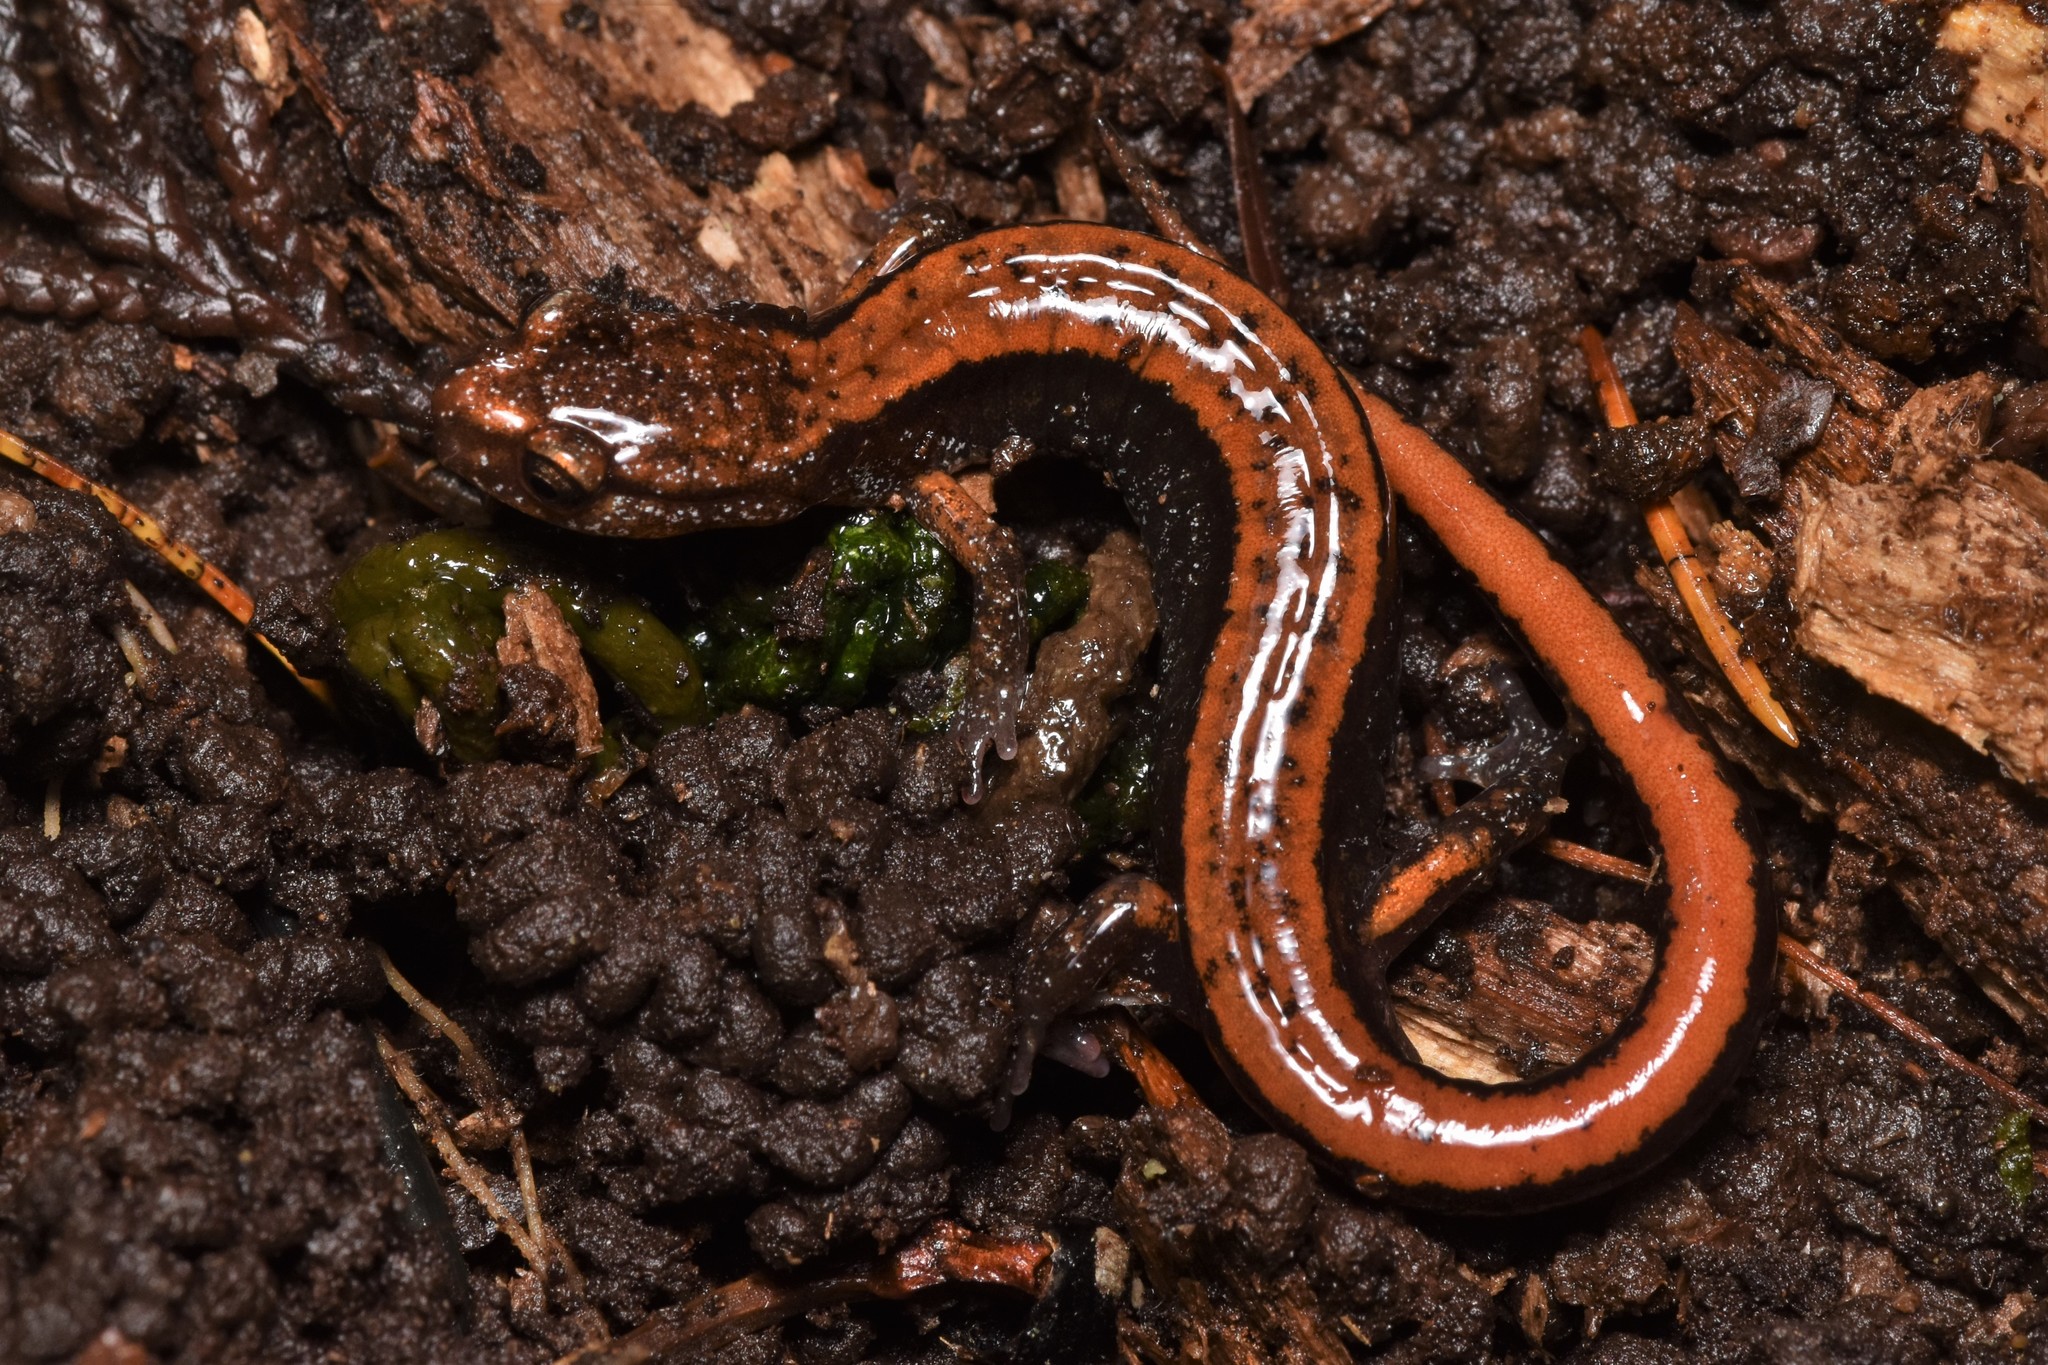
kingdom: Animalia
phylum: Chordata
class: Amphibia
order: Caudata
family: Plethodontidae
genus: Plethodon
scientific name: Plethodon vehiculum
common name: Western red-backed salamander
